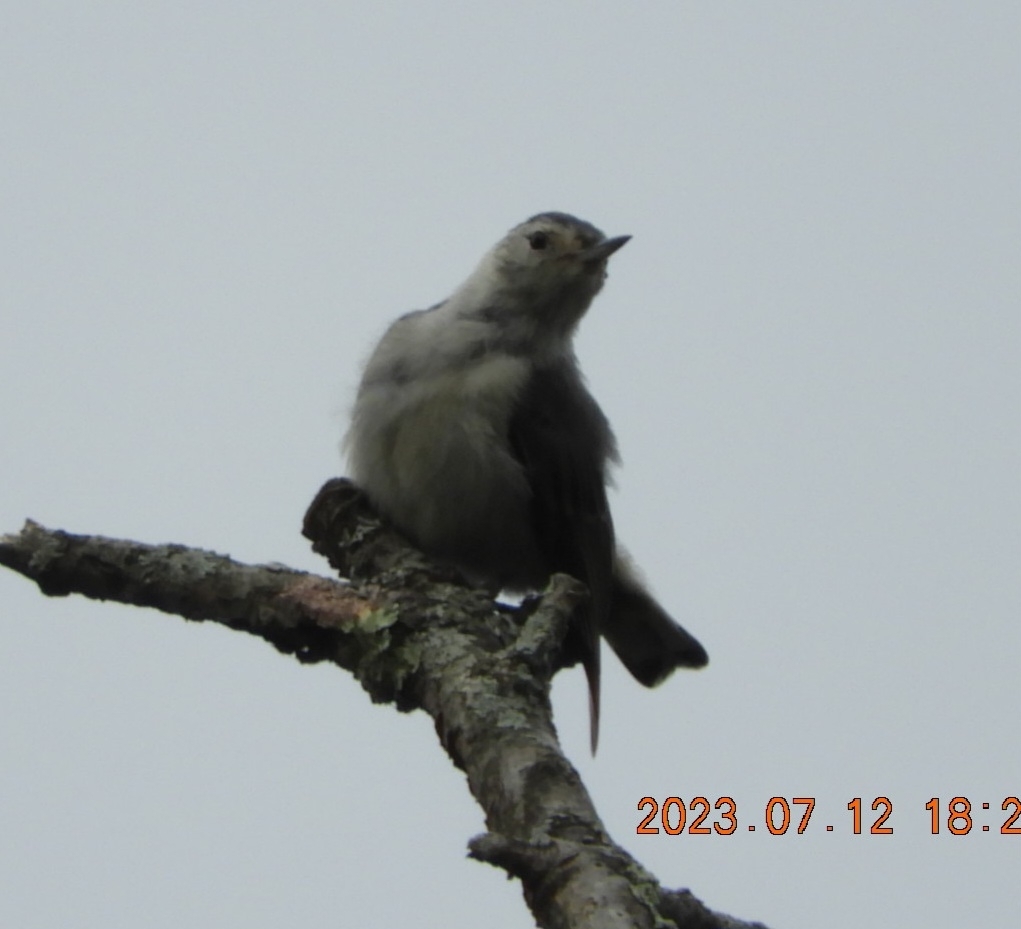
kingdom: Animalia
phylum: Chordata
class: Aves
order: Passeriformes
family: Sittidae
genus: Sitta
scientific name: Sitta carolinensis
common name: White-breasted nuthatch
